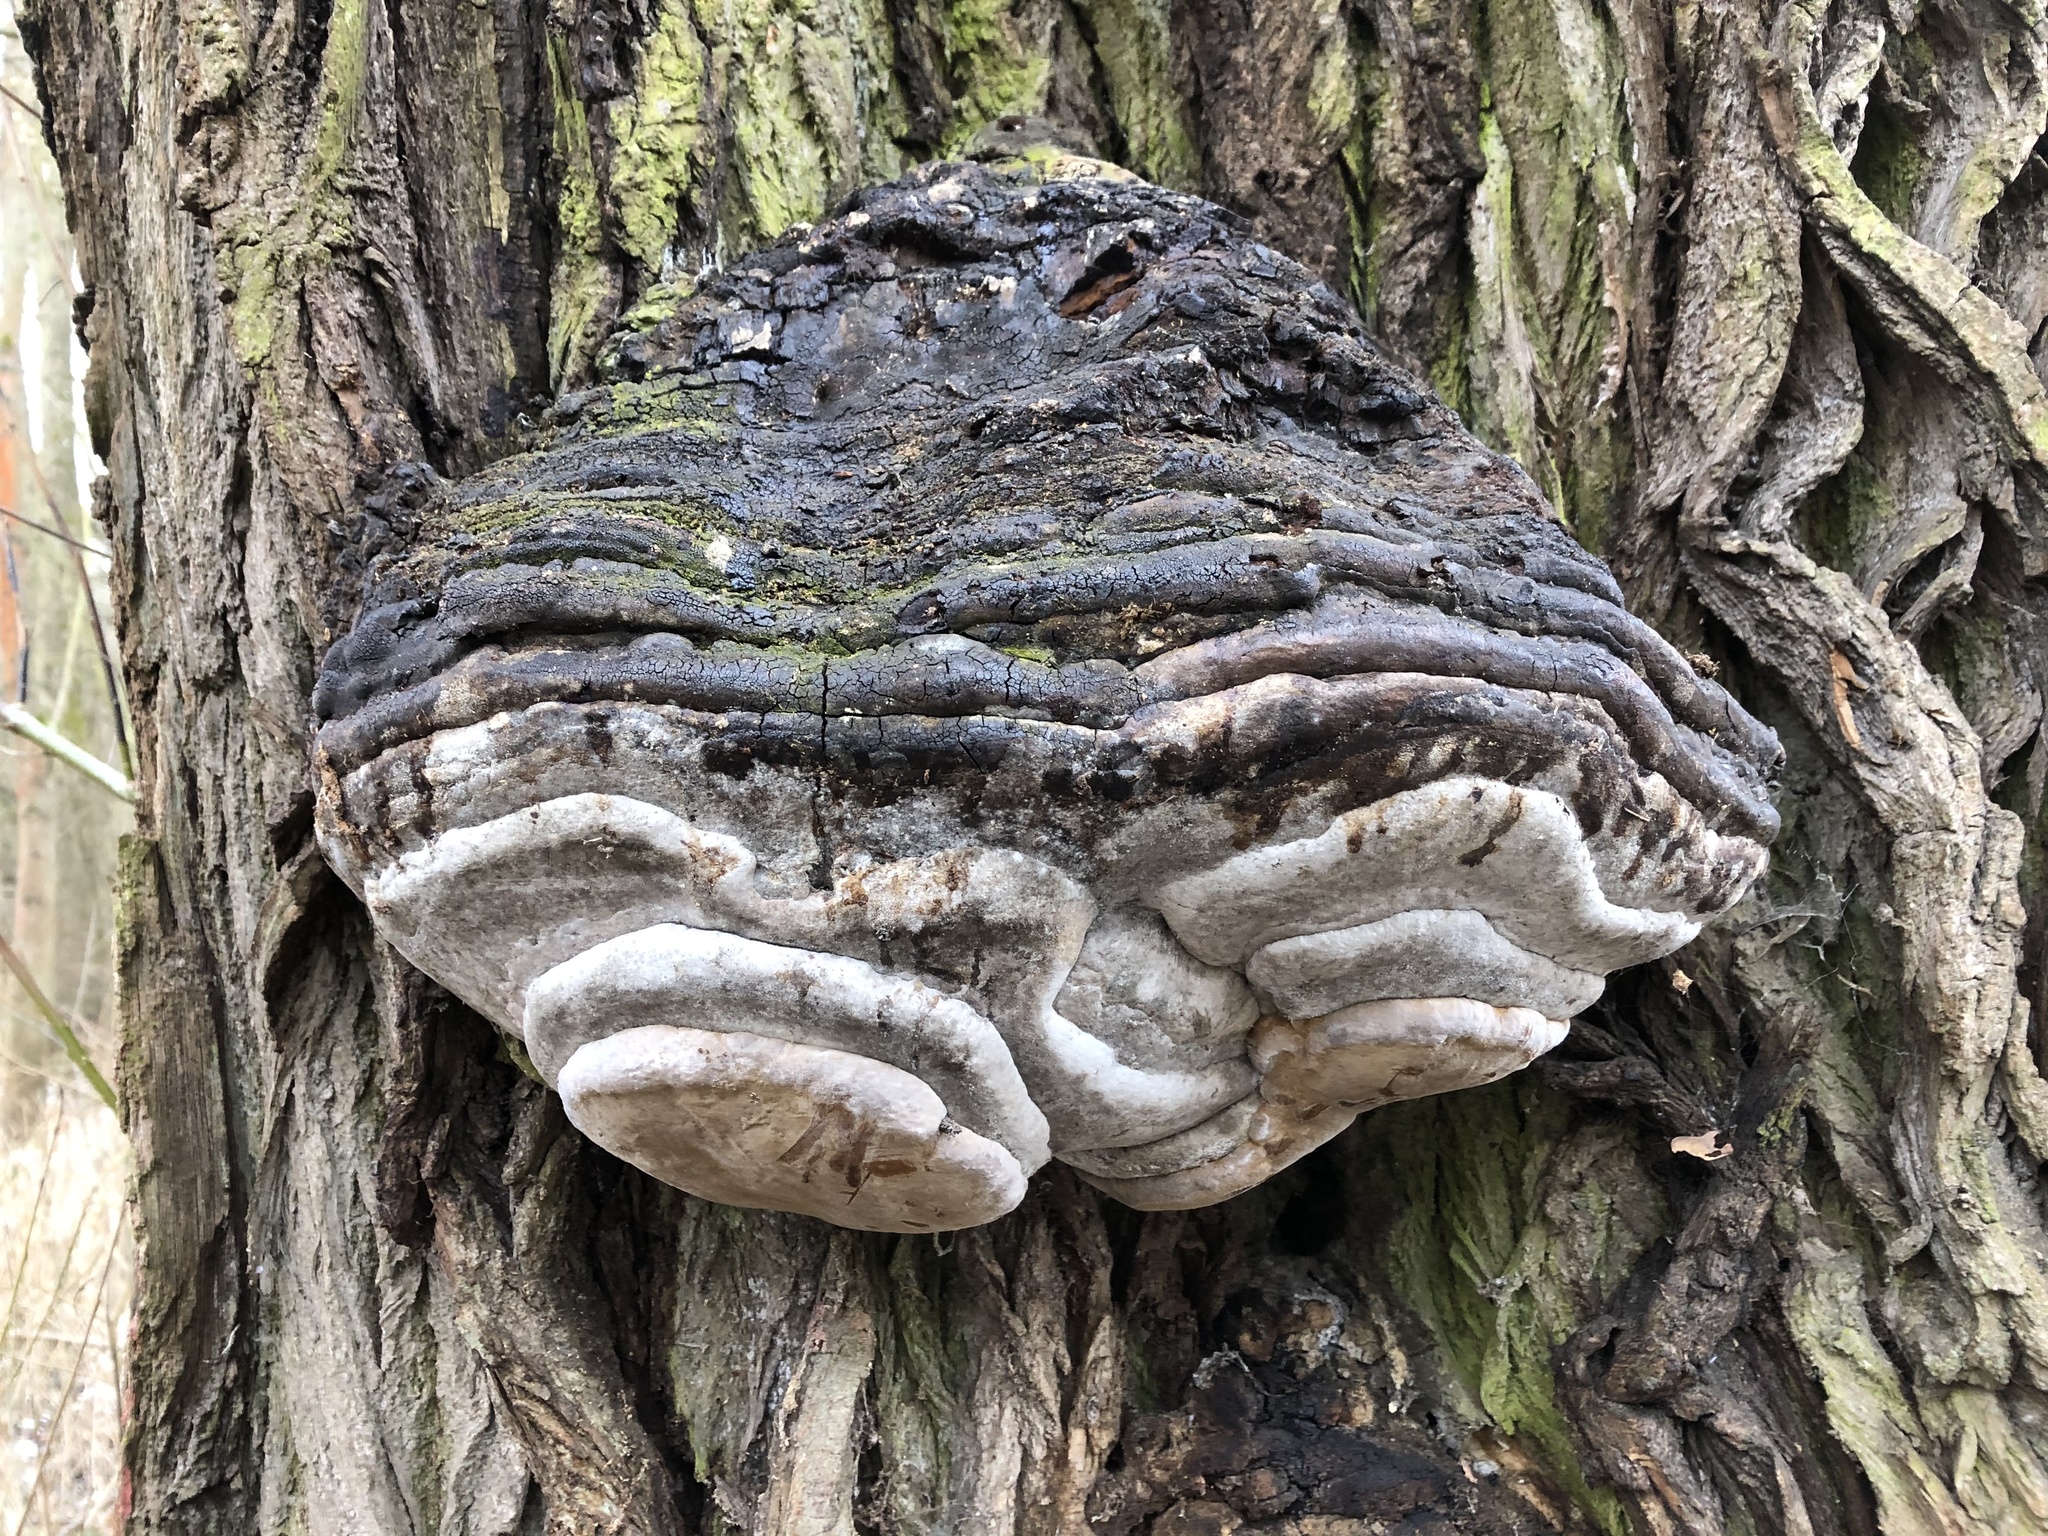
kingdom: Fungi
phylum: Basidiomycota
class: Agaricomycetes
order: Polyporales
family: Polyporaceae
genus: Fomes
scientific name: Fomes fomentarius
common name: Hoof fungus
